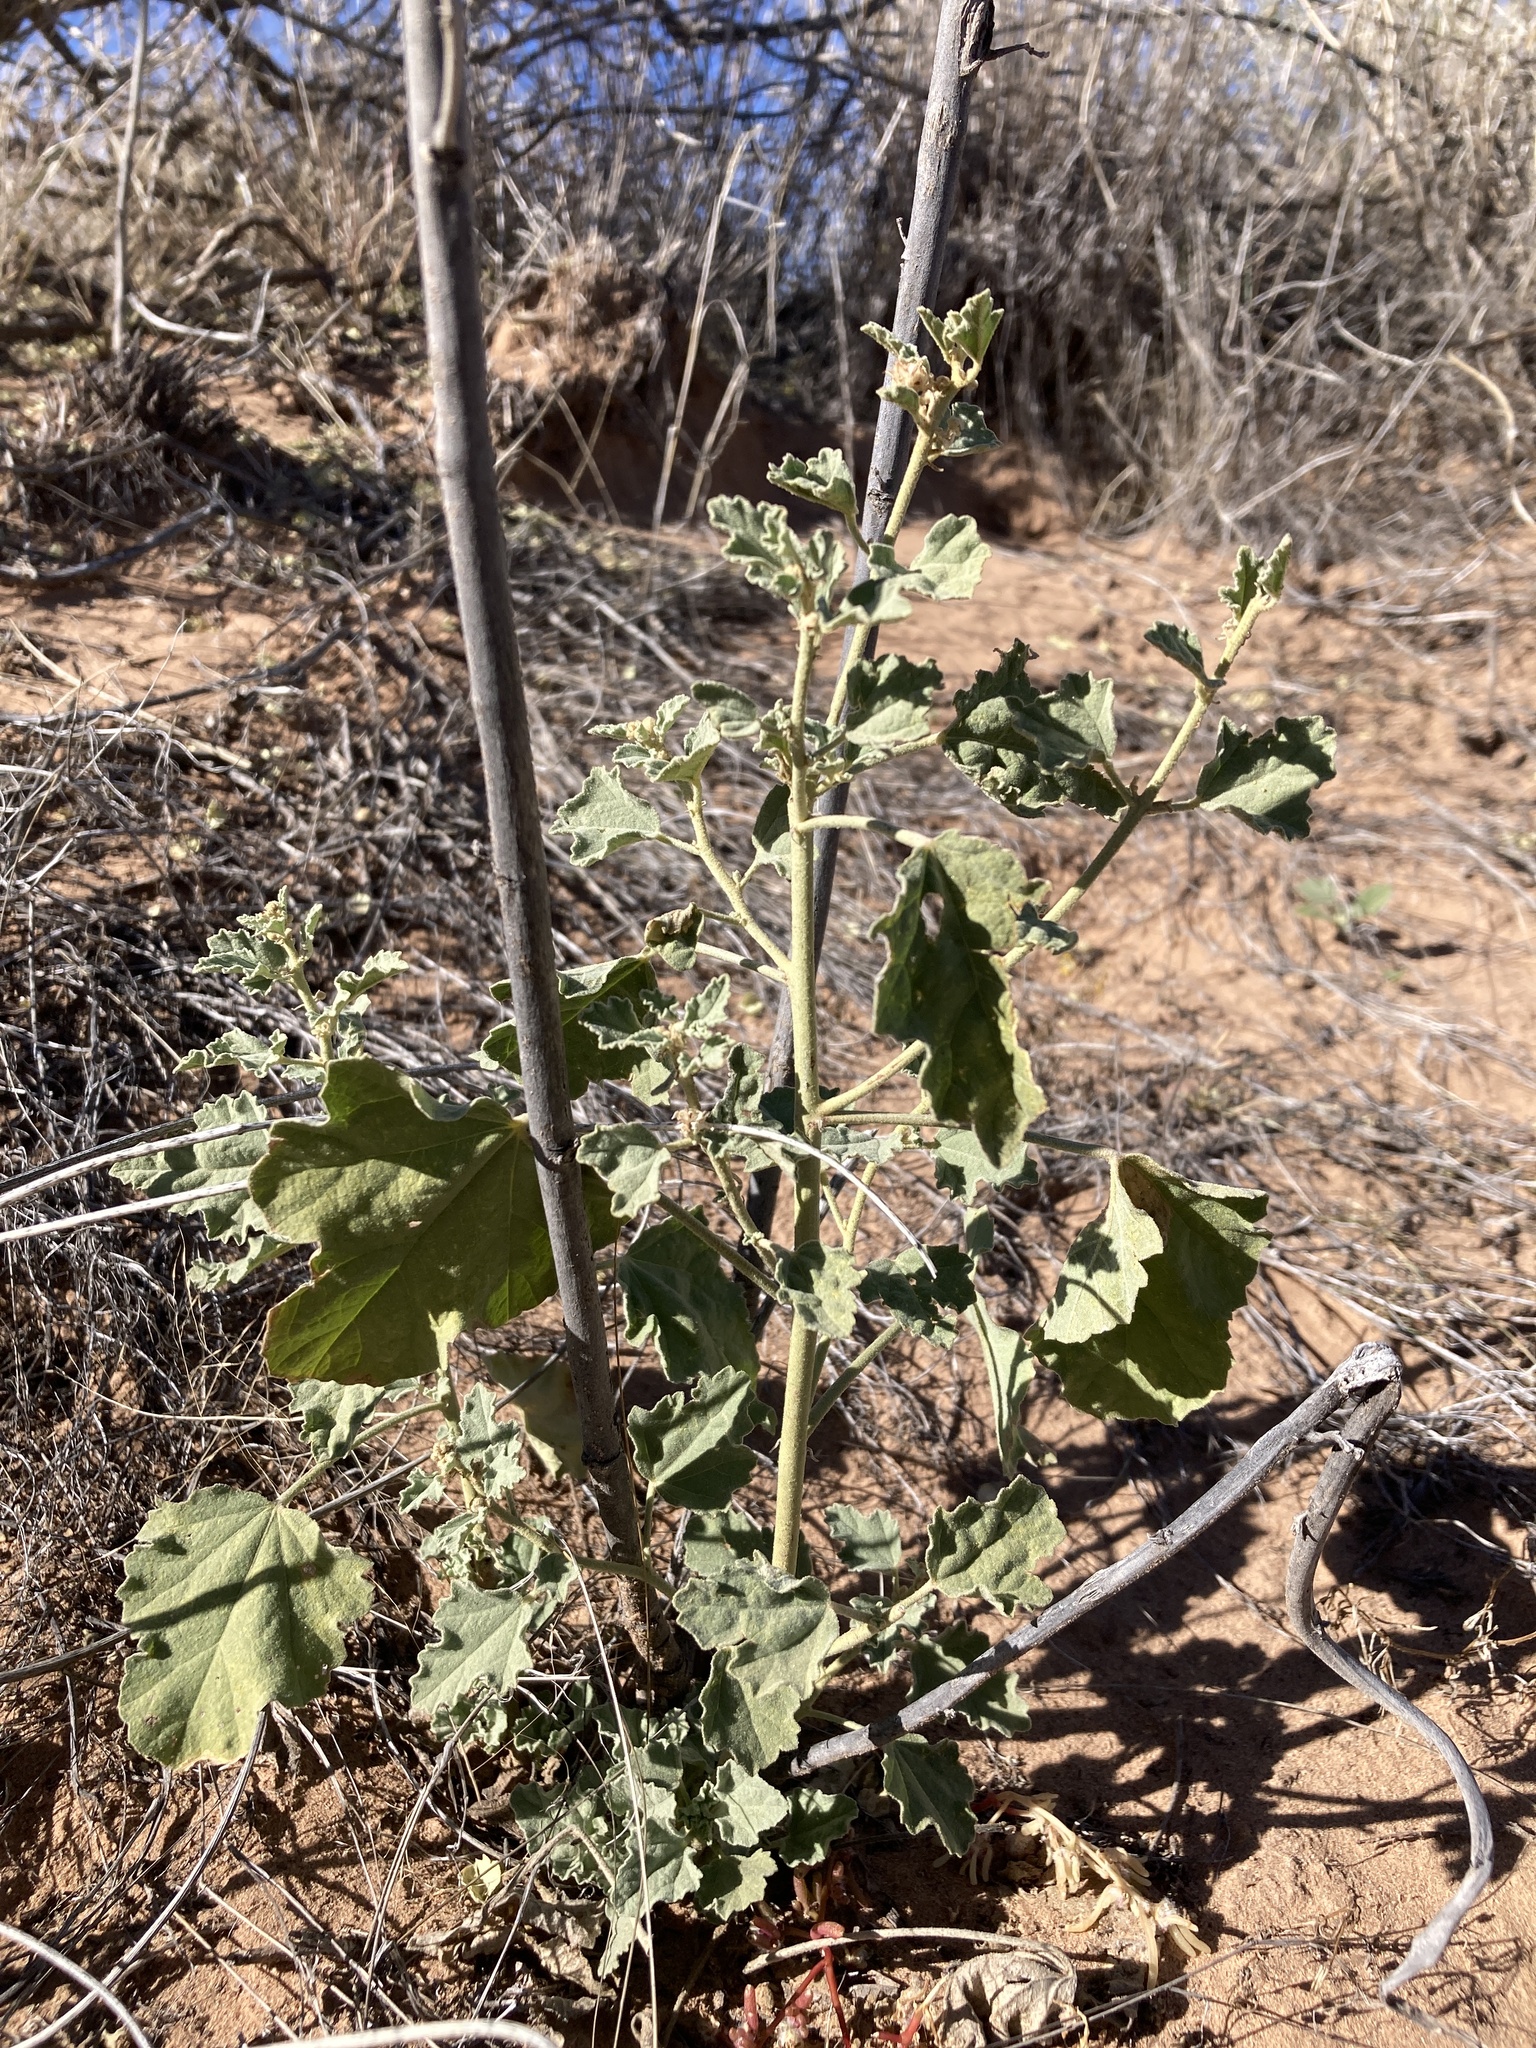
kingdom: Plantae
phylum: Tracheophyta
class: Magnoliopsida
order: Malvales
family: Malvaceae
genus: Sphaeralcea
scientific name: Sphaeralcea incana
